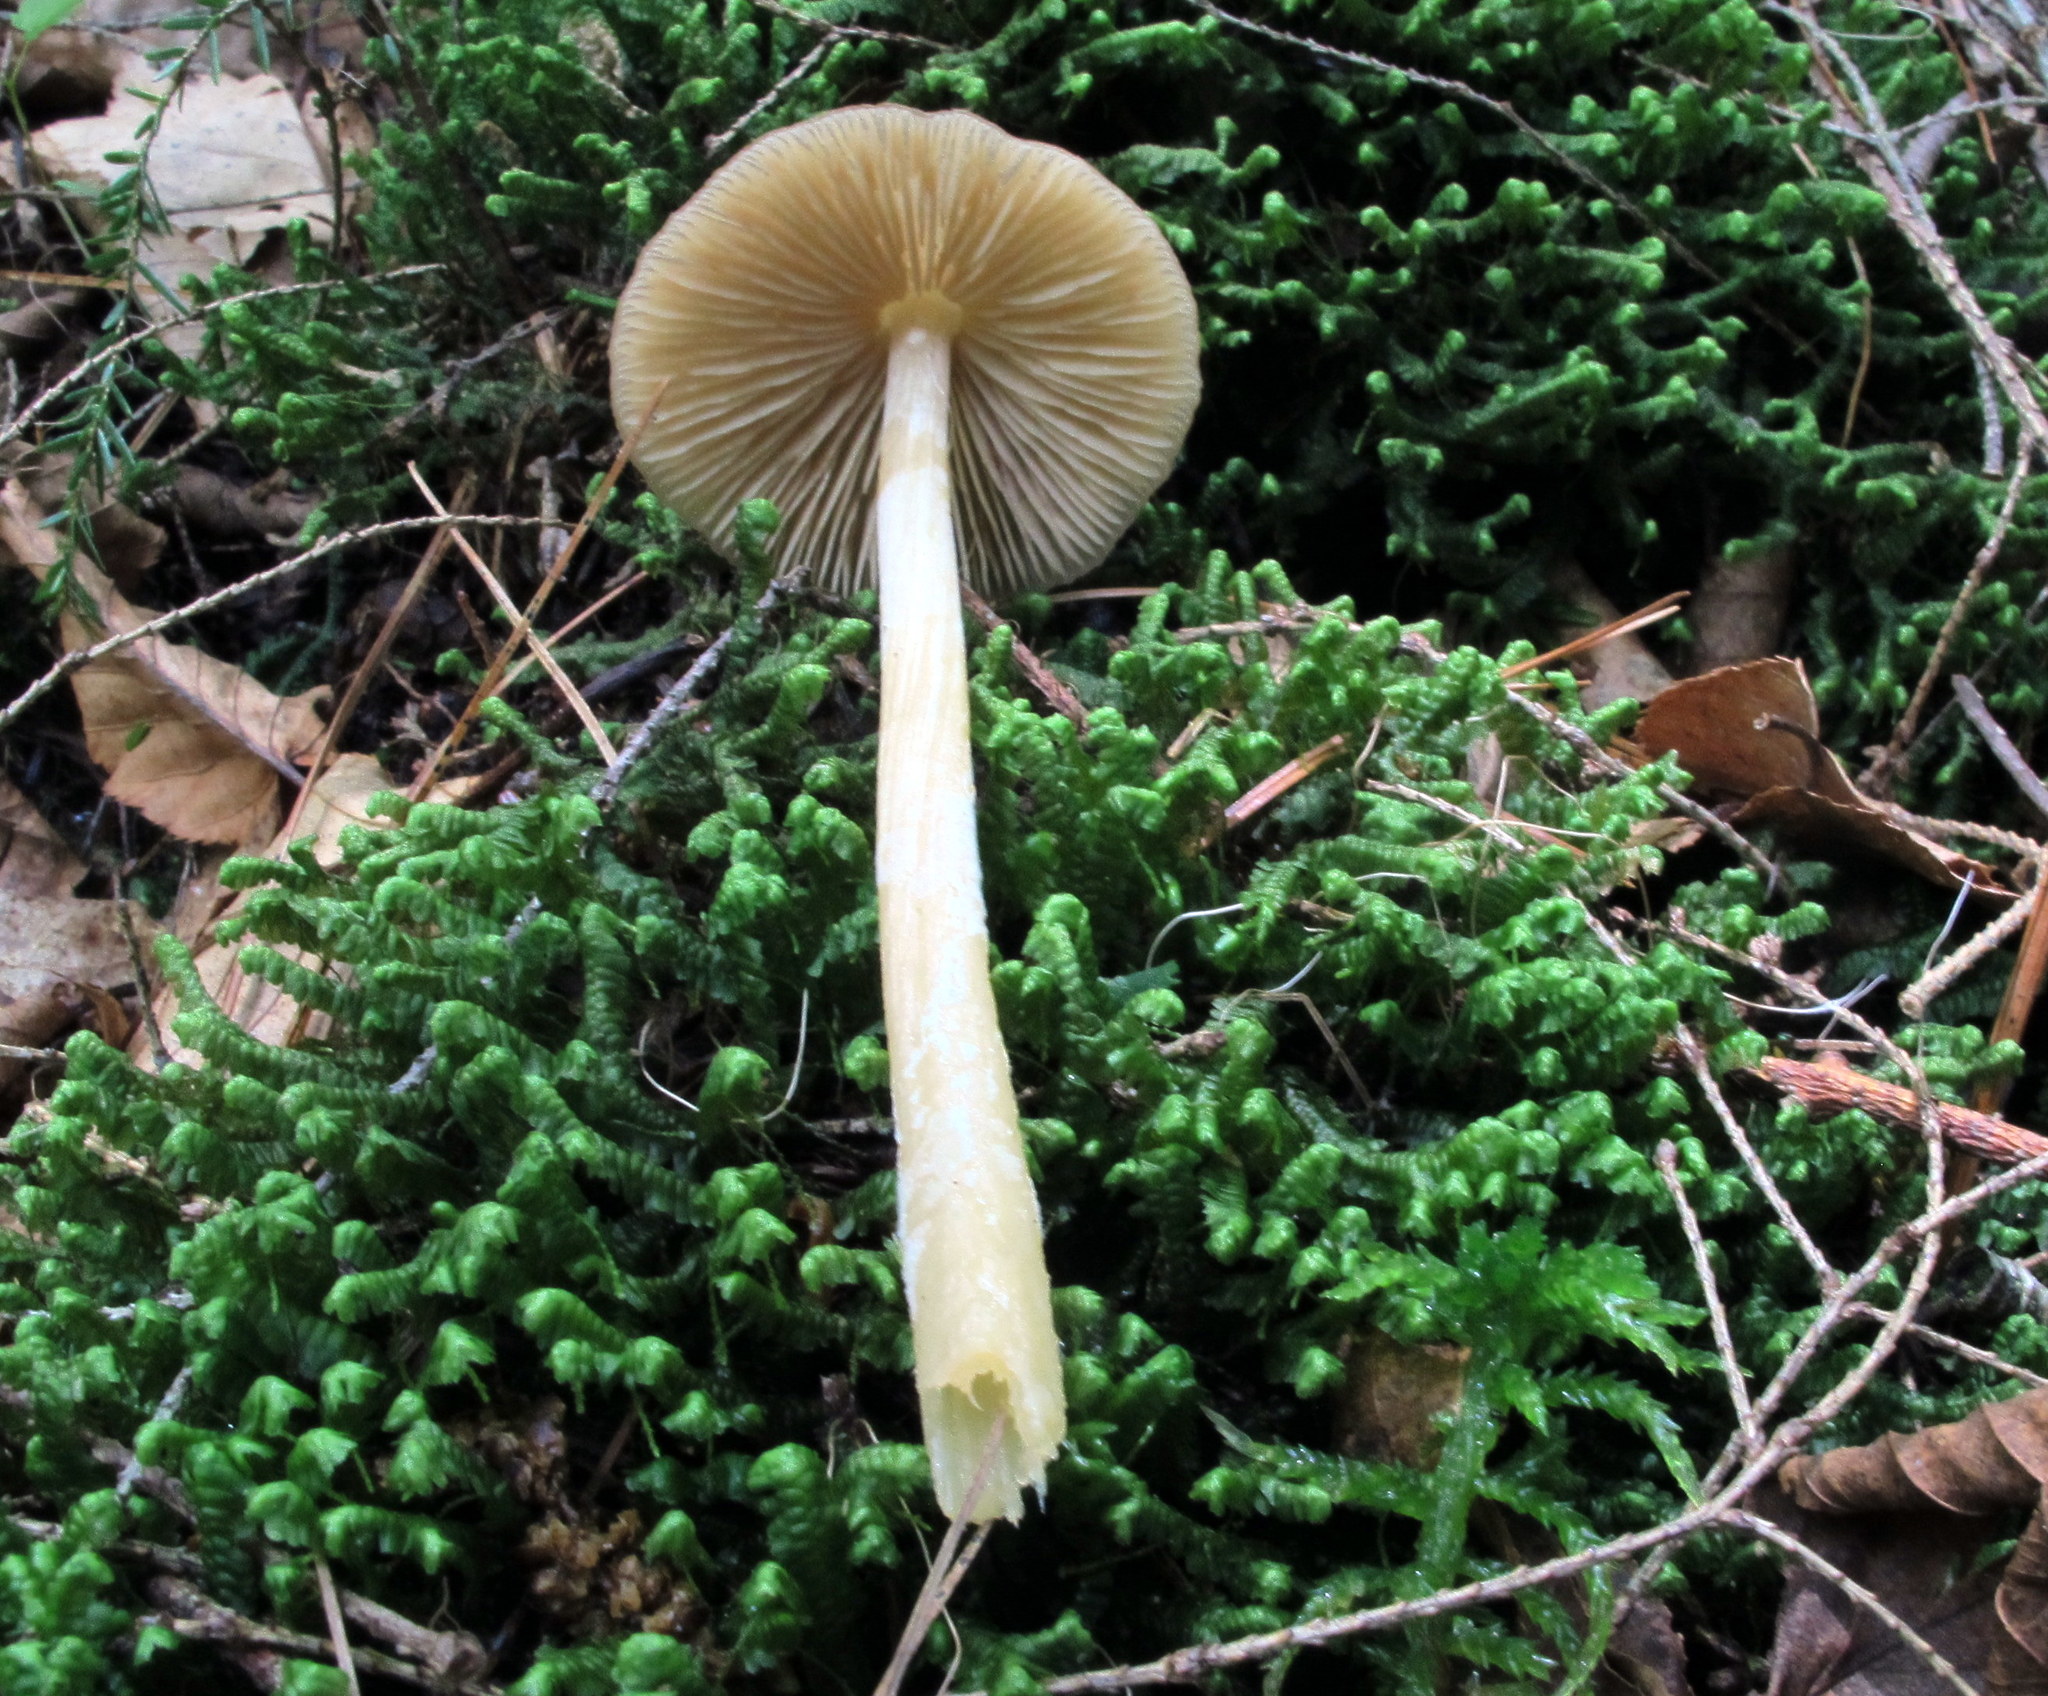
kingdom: Fungi
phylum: Basidiomycota
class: Agaricomycetes
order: Agaricales
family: Entolomataceae
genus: Entoloma
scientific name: Entoloma strictius
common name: Straight-stalked entoloma
